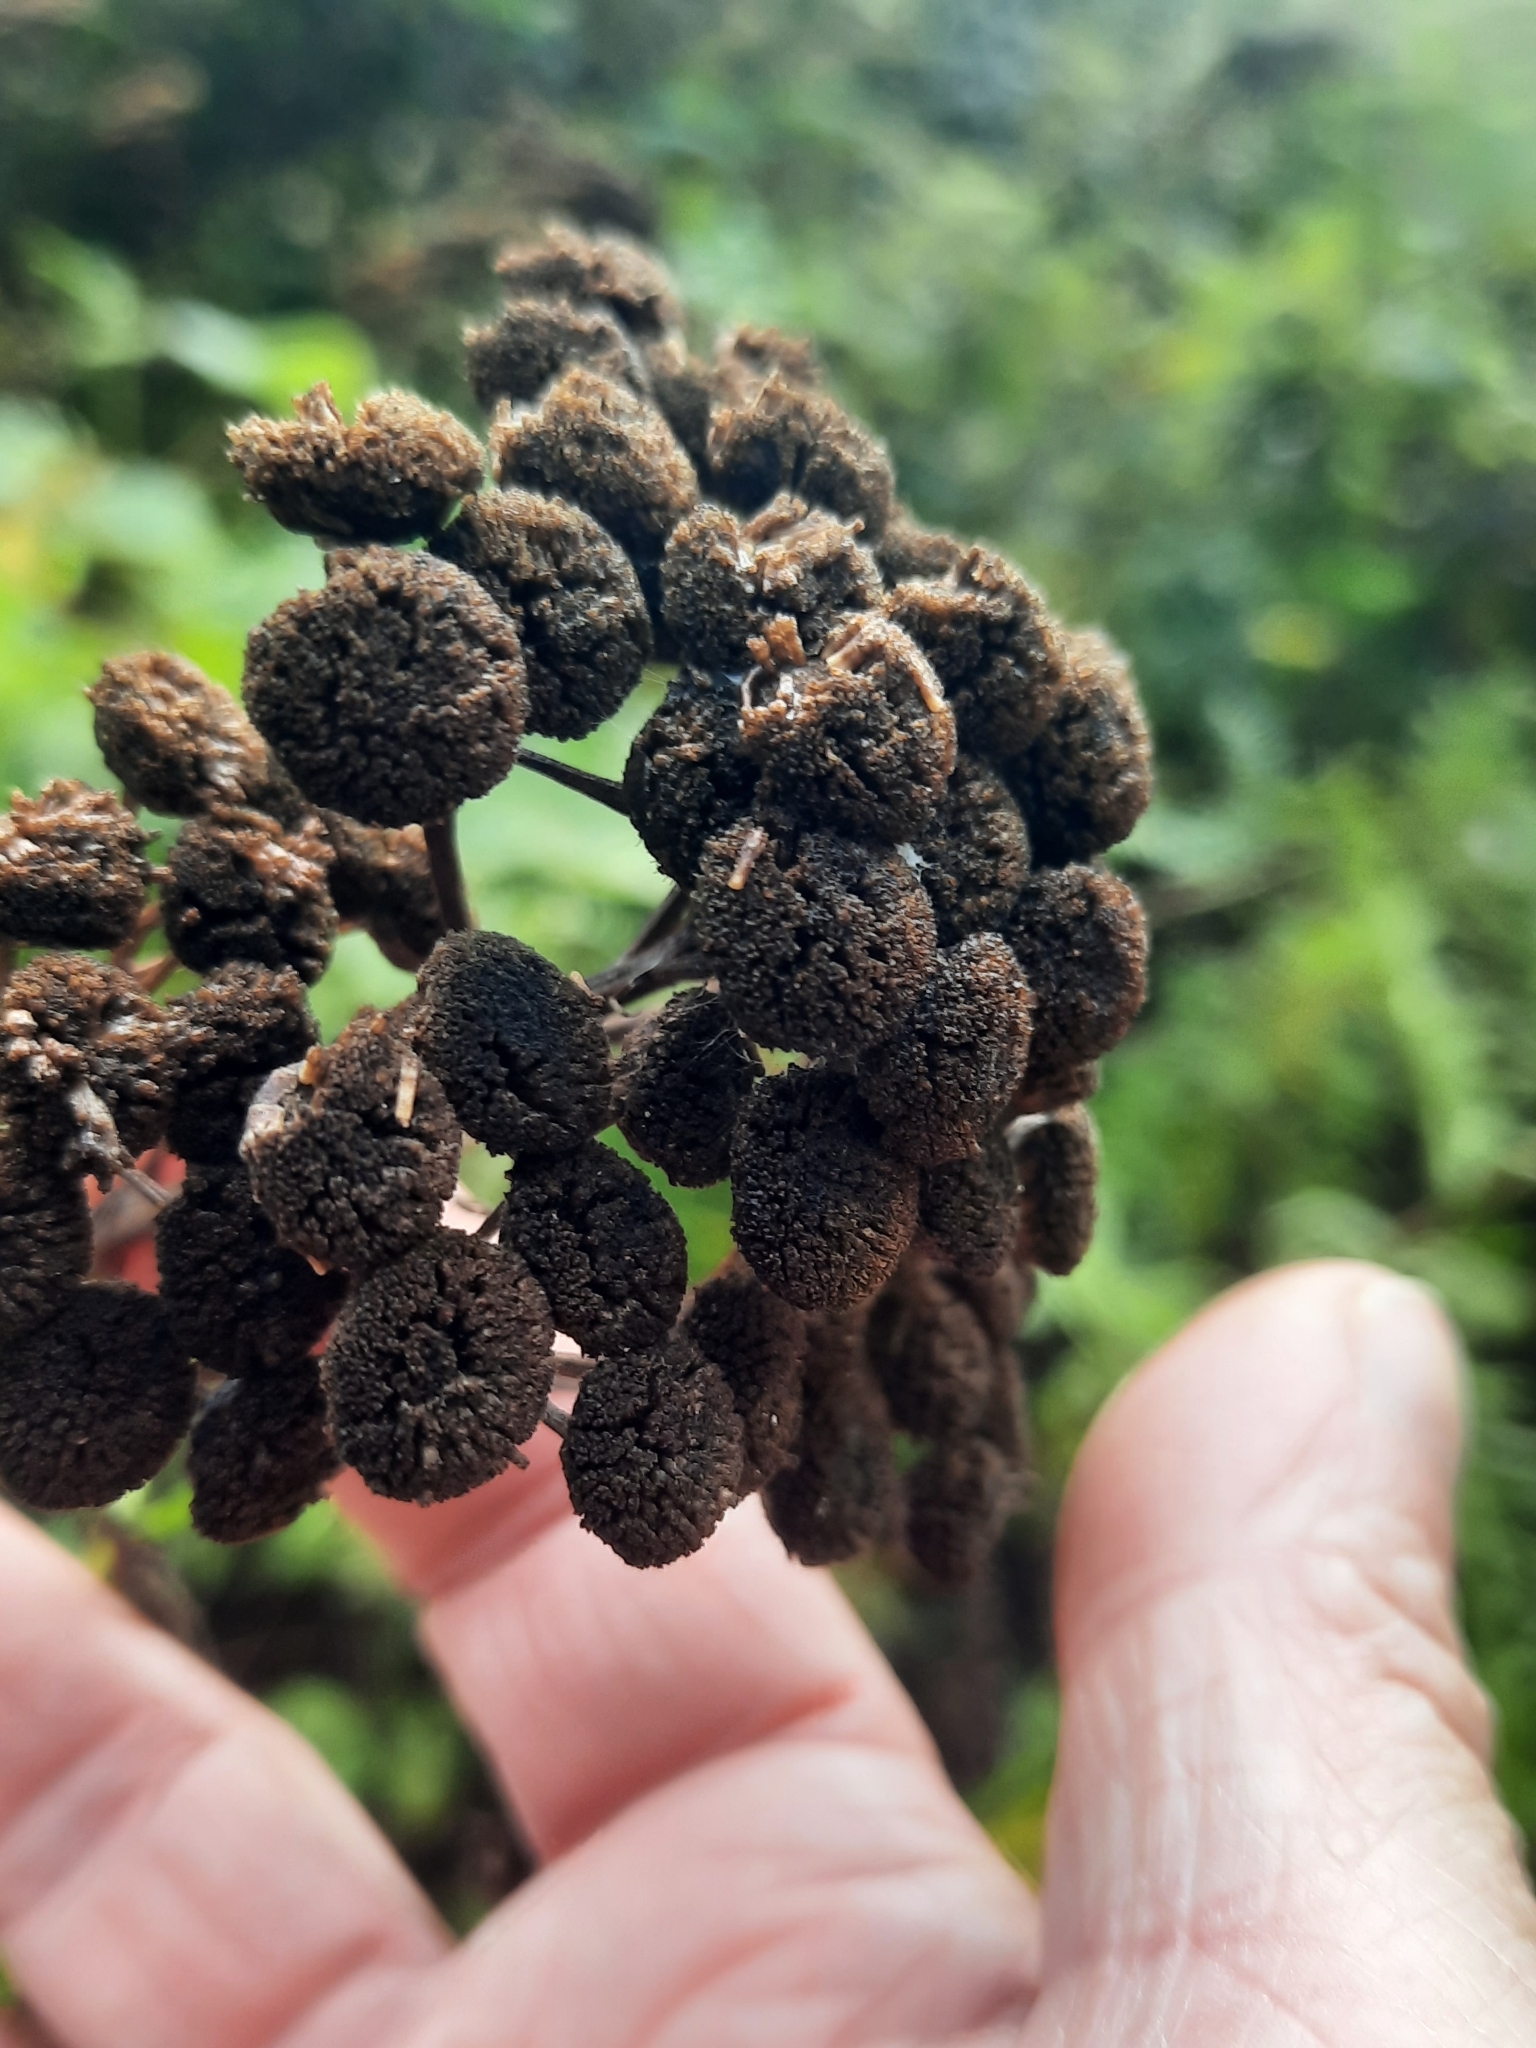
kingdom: Plantae
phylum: Tracheophyta
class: Magnoliopsida
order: Asterales
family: Asteraceae
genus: Tanacetum
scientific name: Tanacetum vulgare
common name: Common tansy
